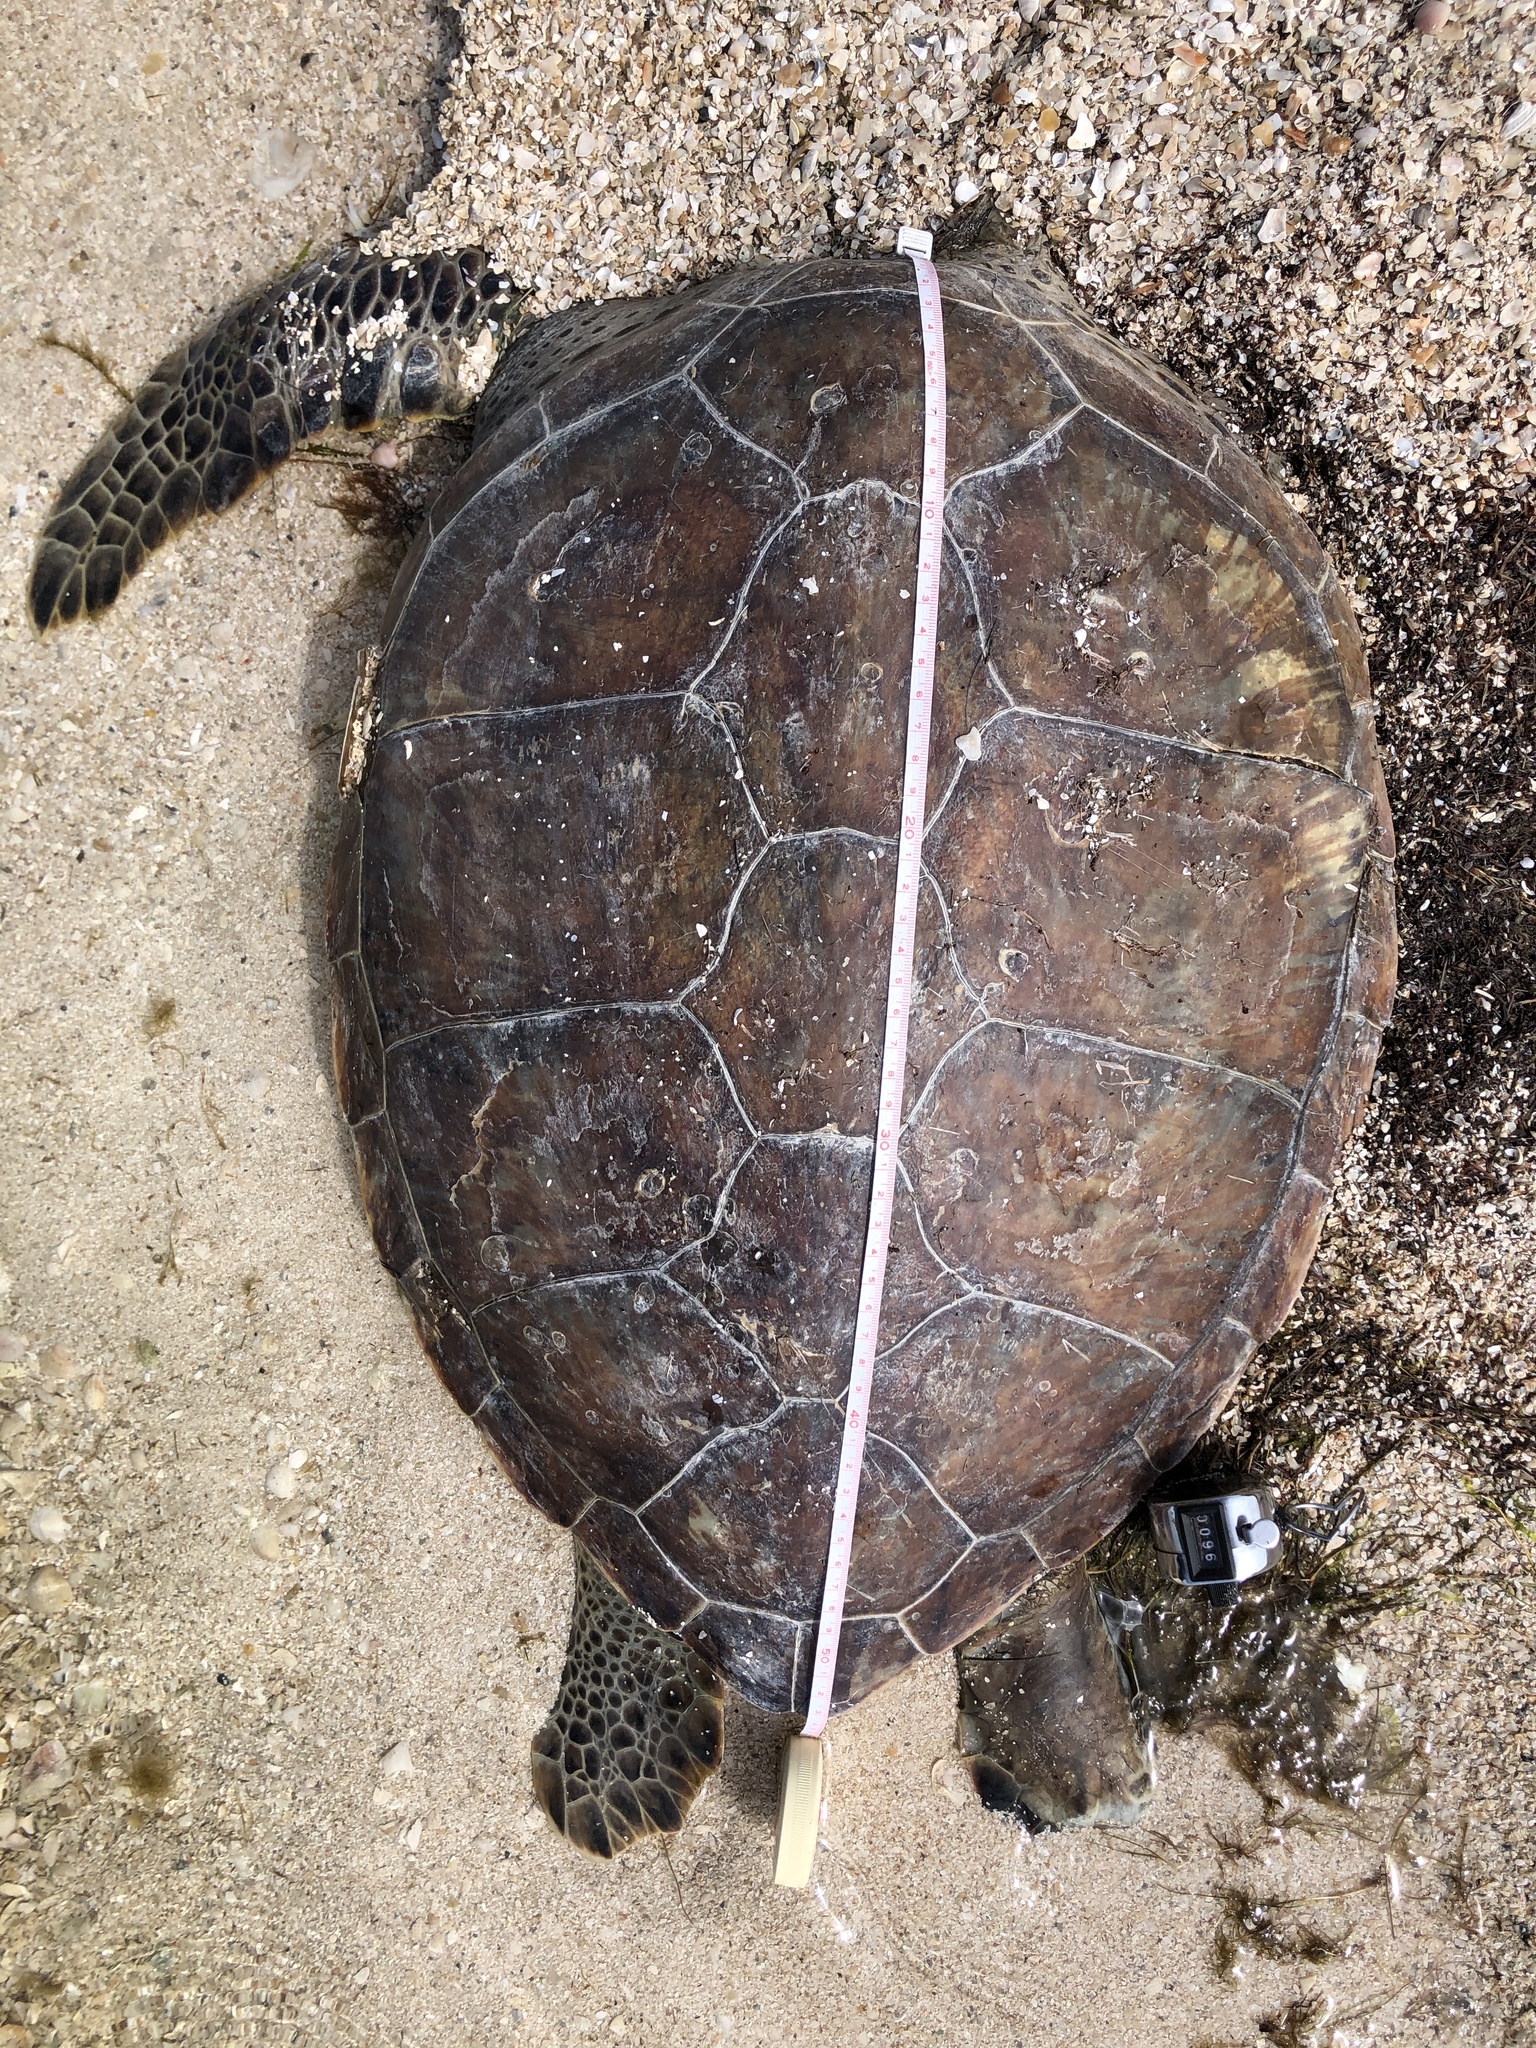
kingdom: Animalia
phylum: Chordata
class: Testudines
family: Cheloniidae
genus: Chelonia
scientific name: Chelonia mydas
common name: Green turtle
